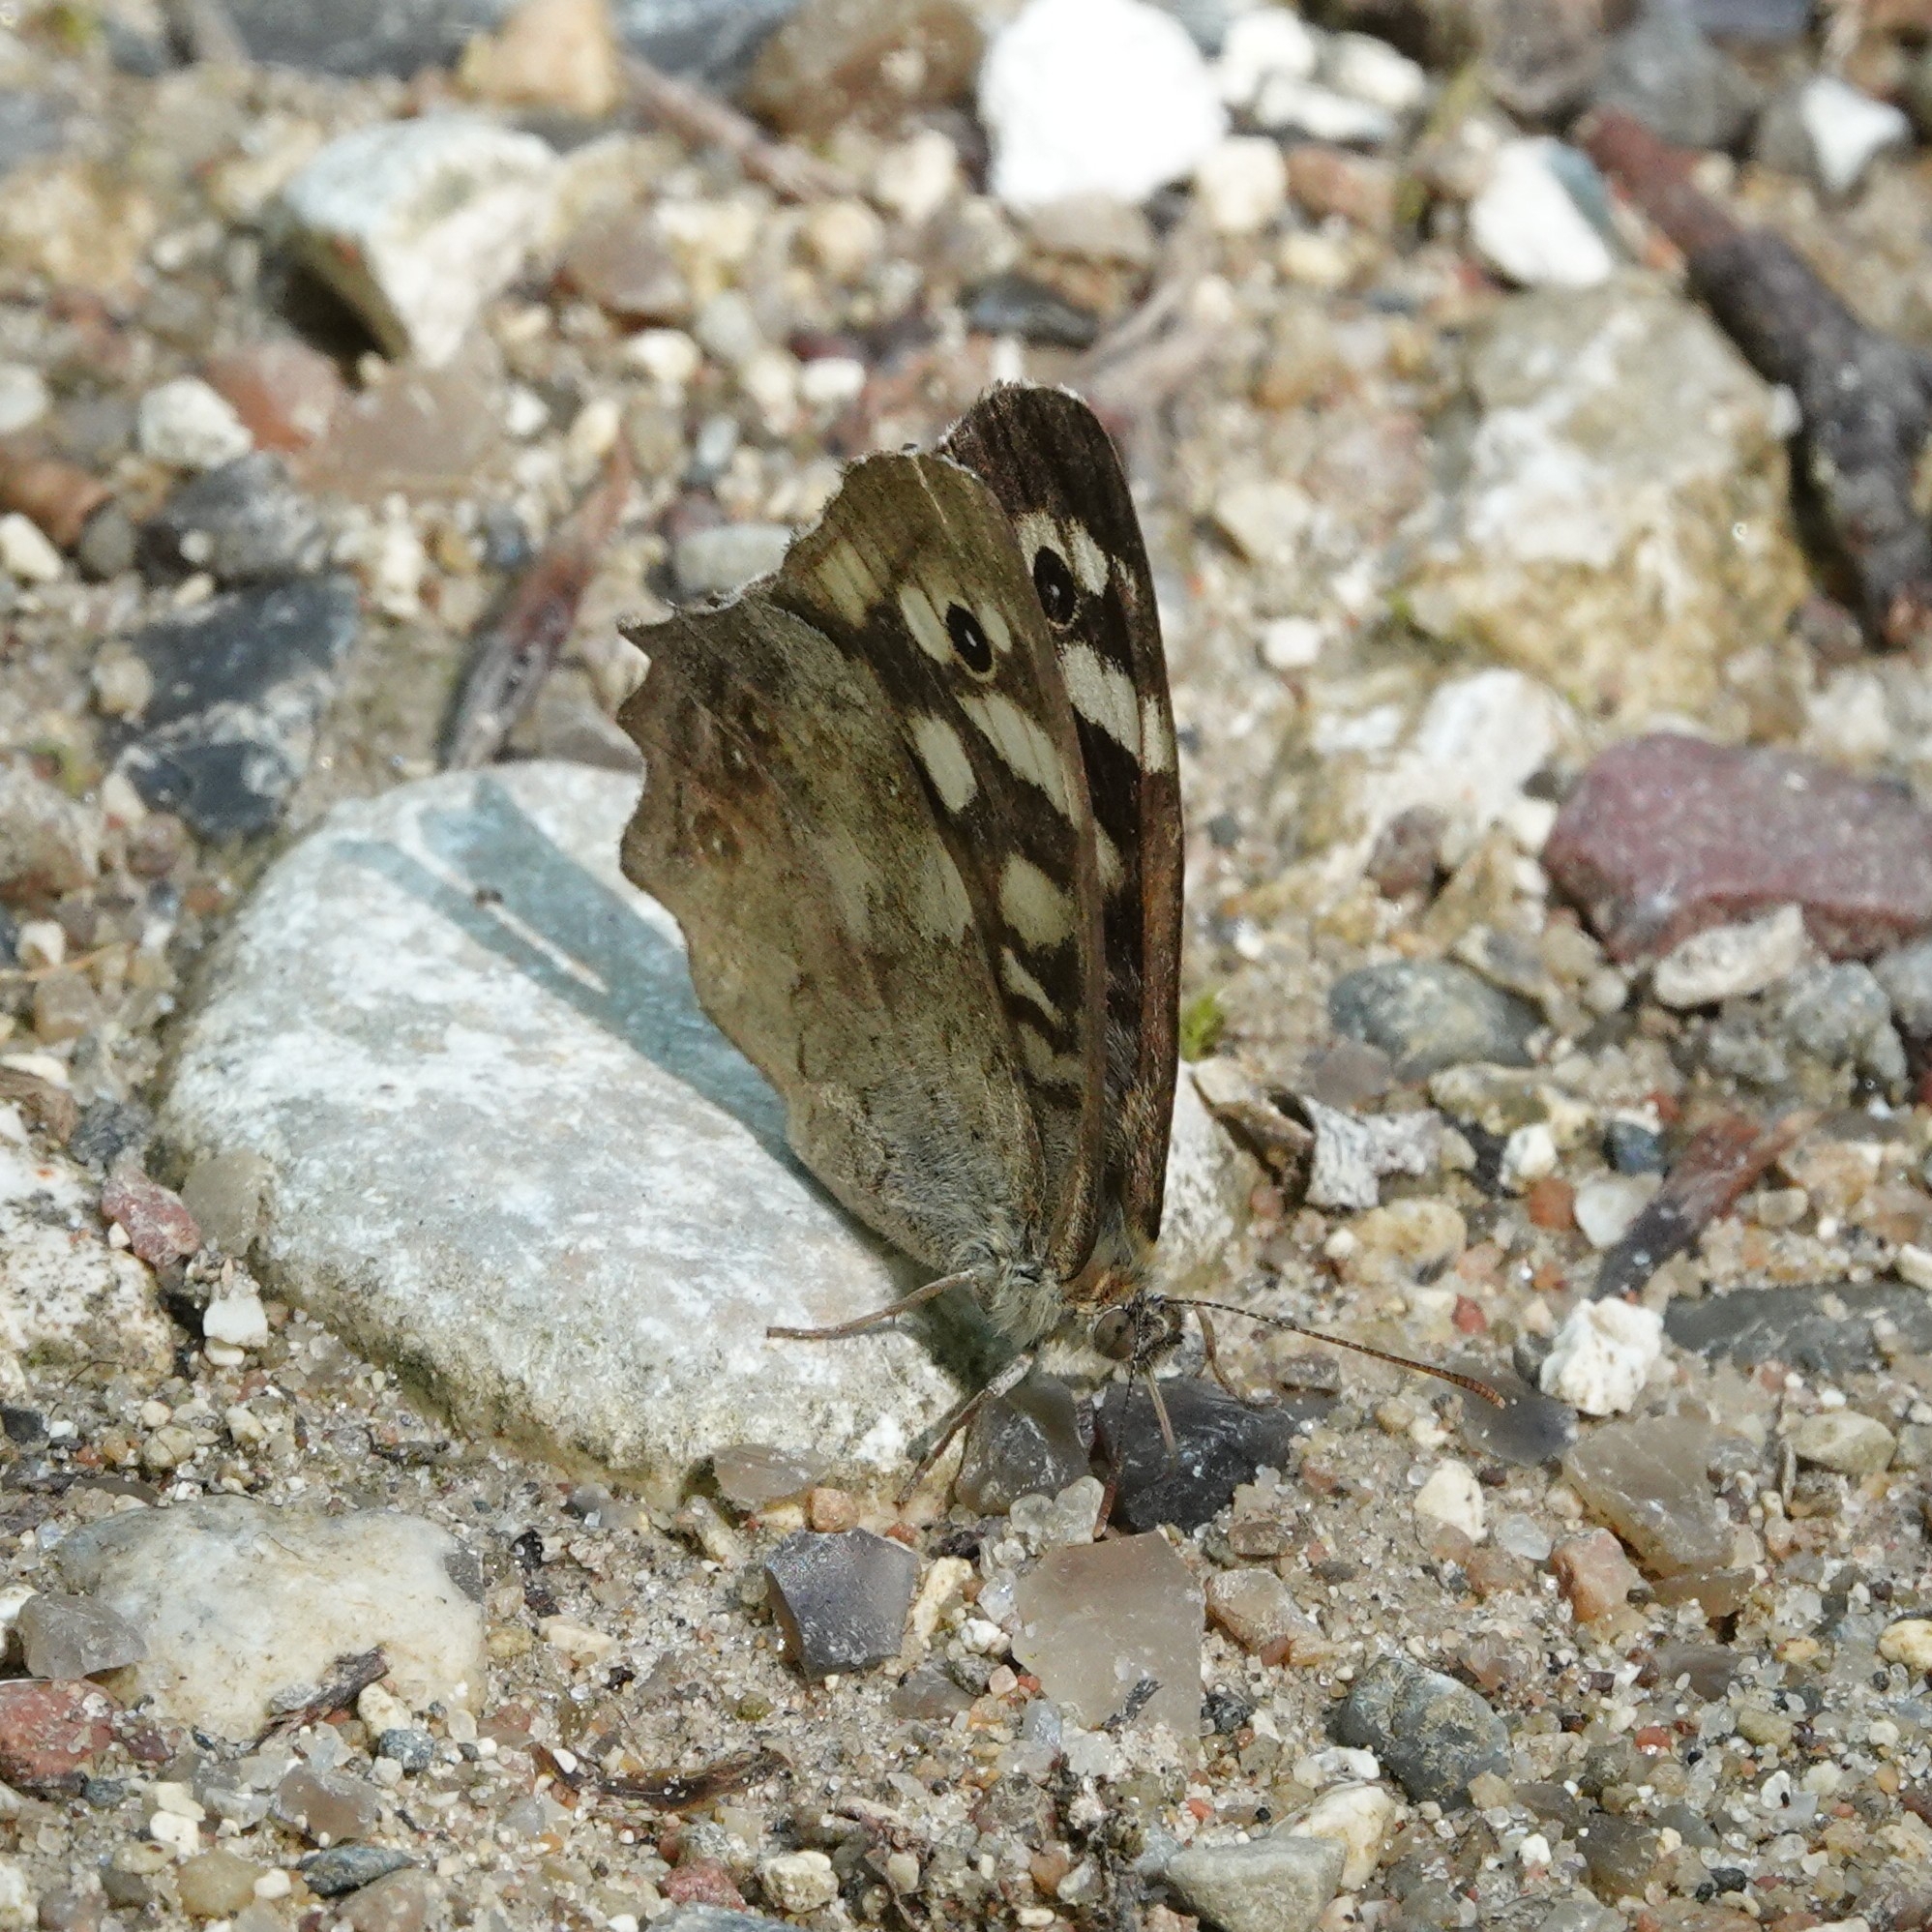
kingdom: Animalia
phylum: Arthropoda
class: Insecta
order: Lepidoptera
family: Nymphalidae
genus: Pararge
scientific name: Pararge aegeria
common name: Speckled wood
